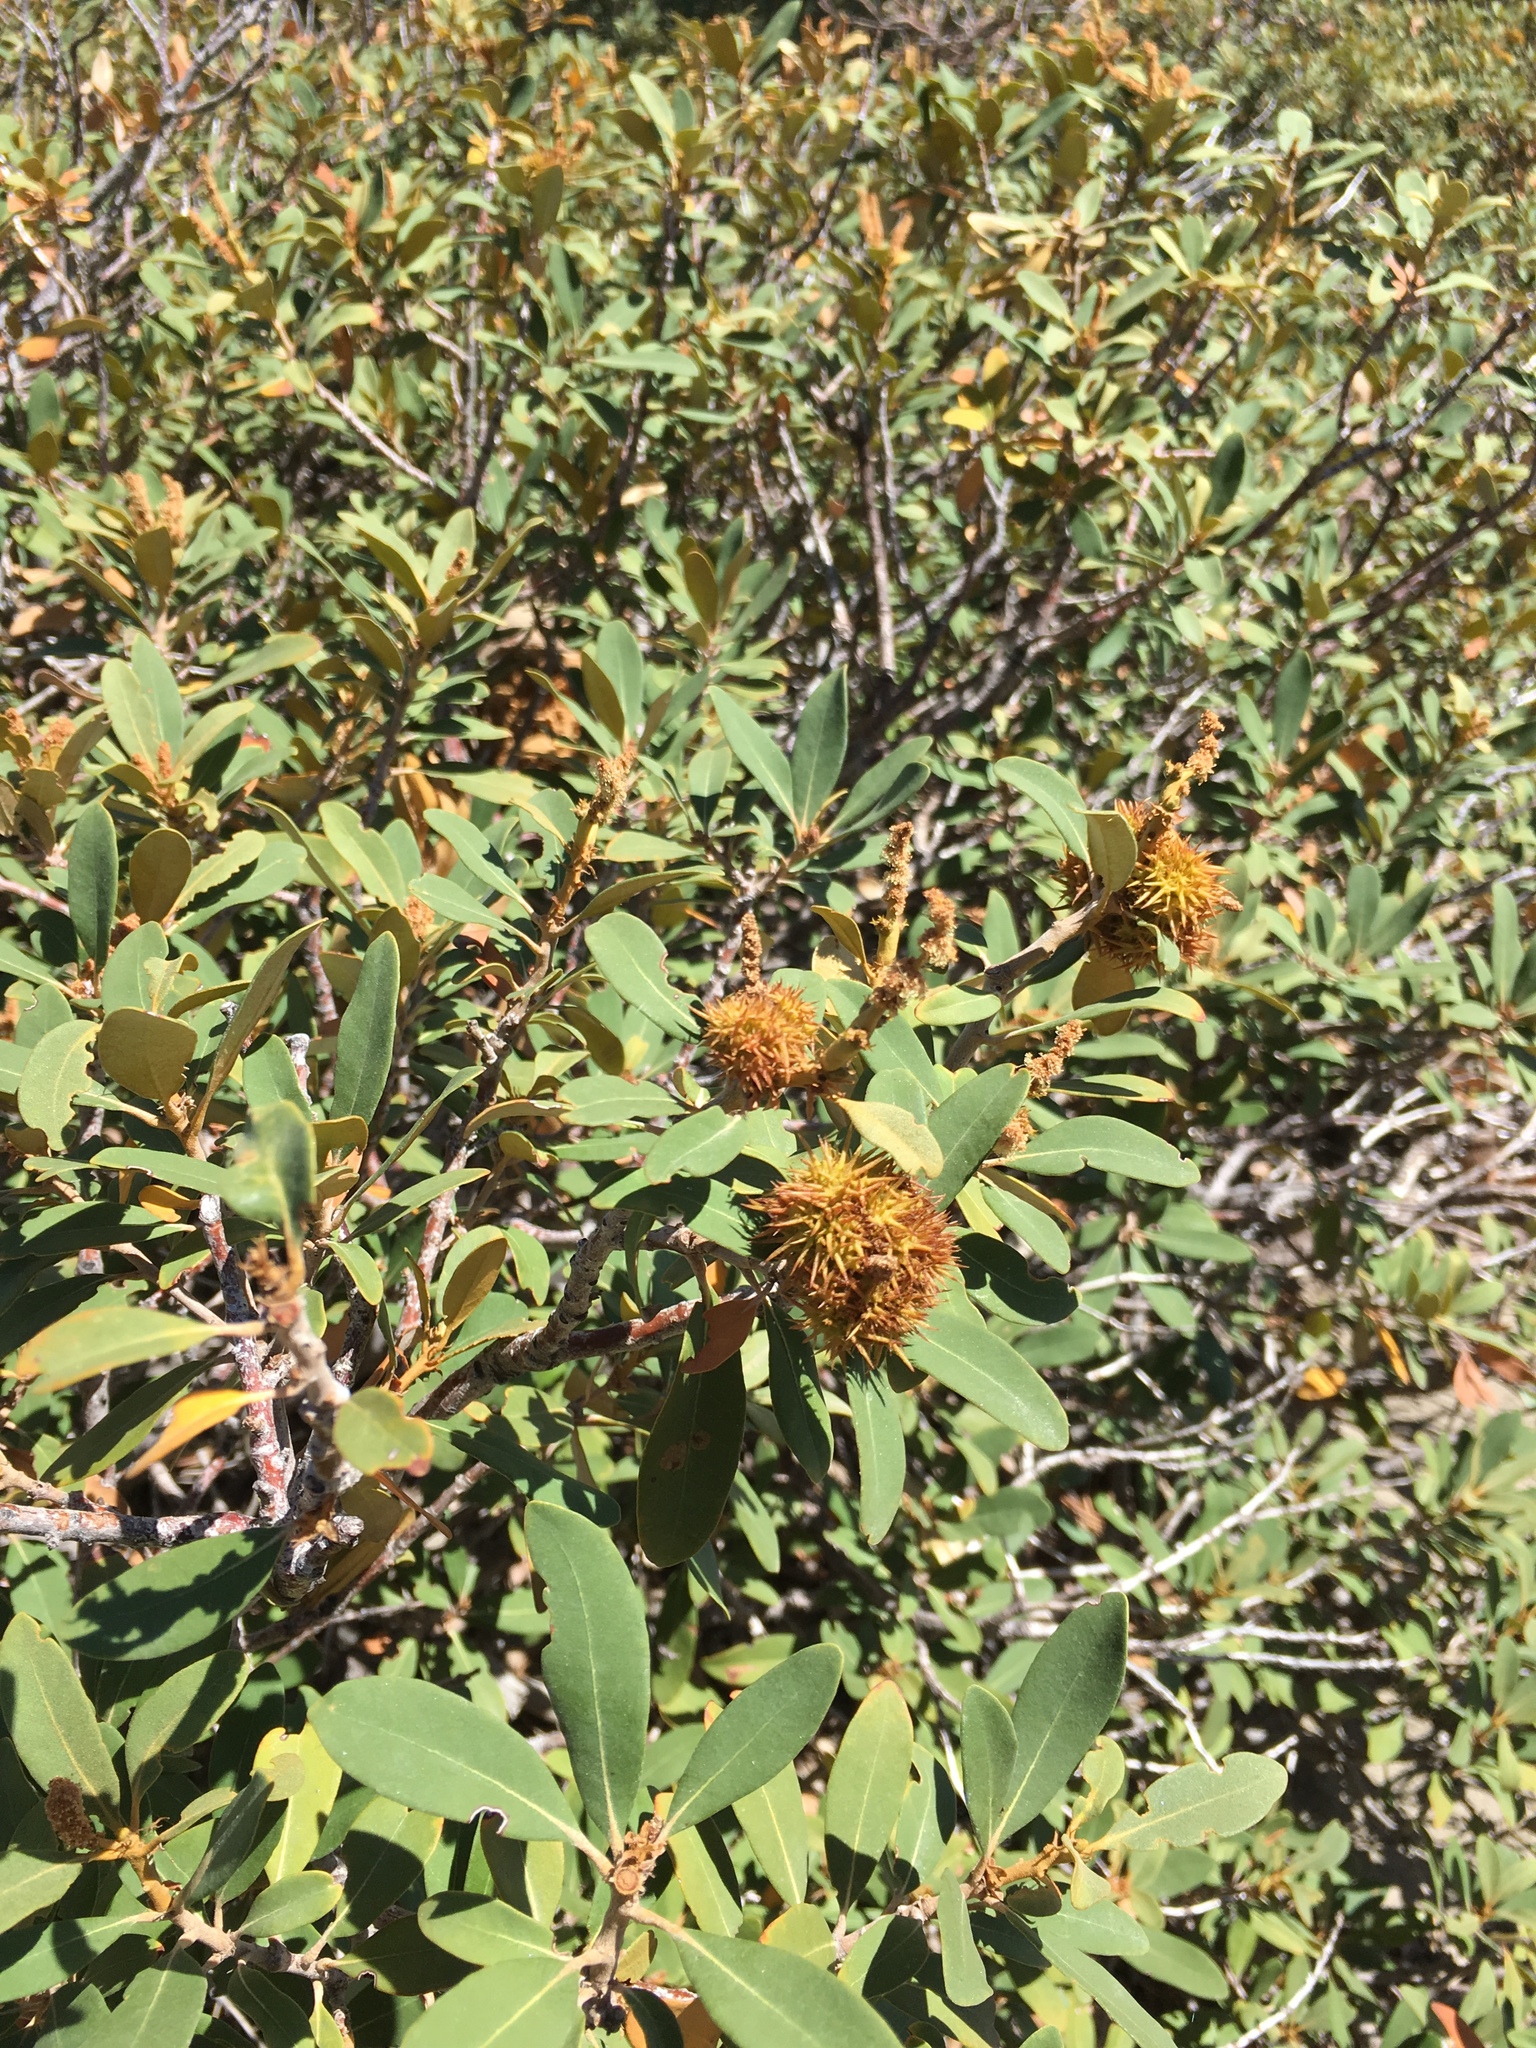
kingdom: Plantae
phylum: Tracheophyta
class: Magnoliopsida
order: Fagales
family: Fagaceae
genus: Chrysolepis
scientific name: Chrysolepis sempervirens
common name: Bush chinquapin
